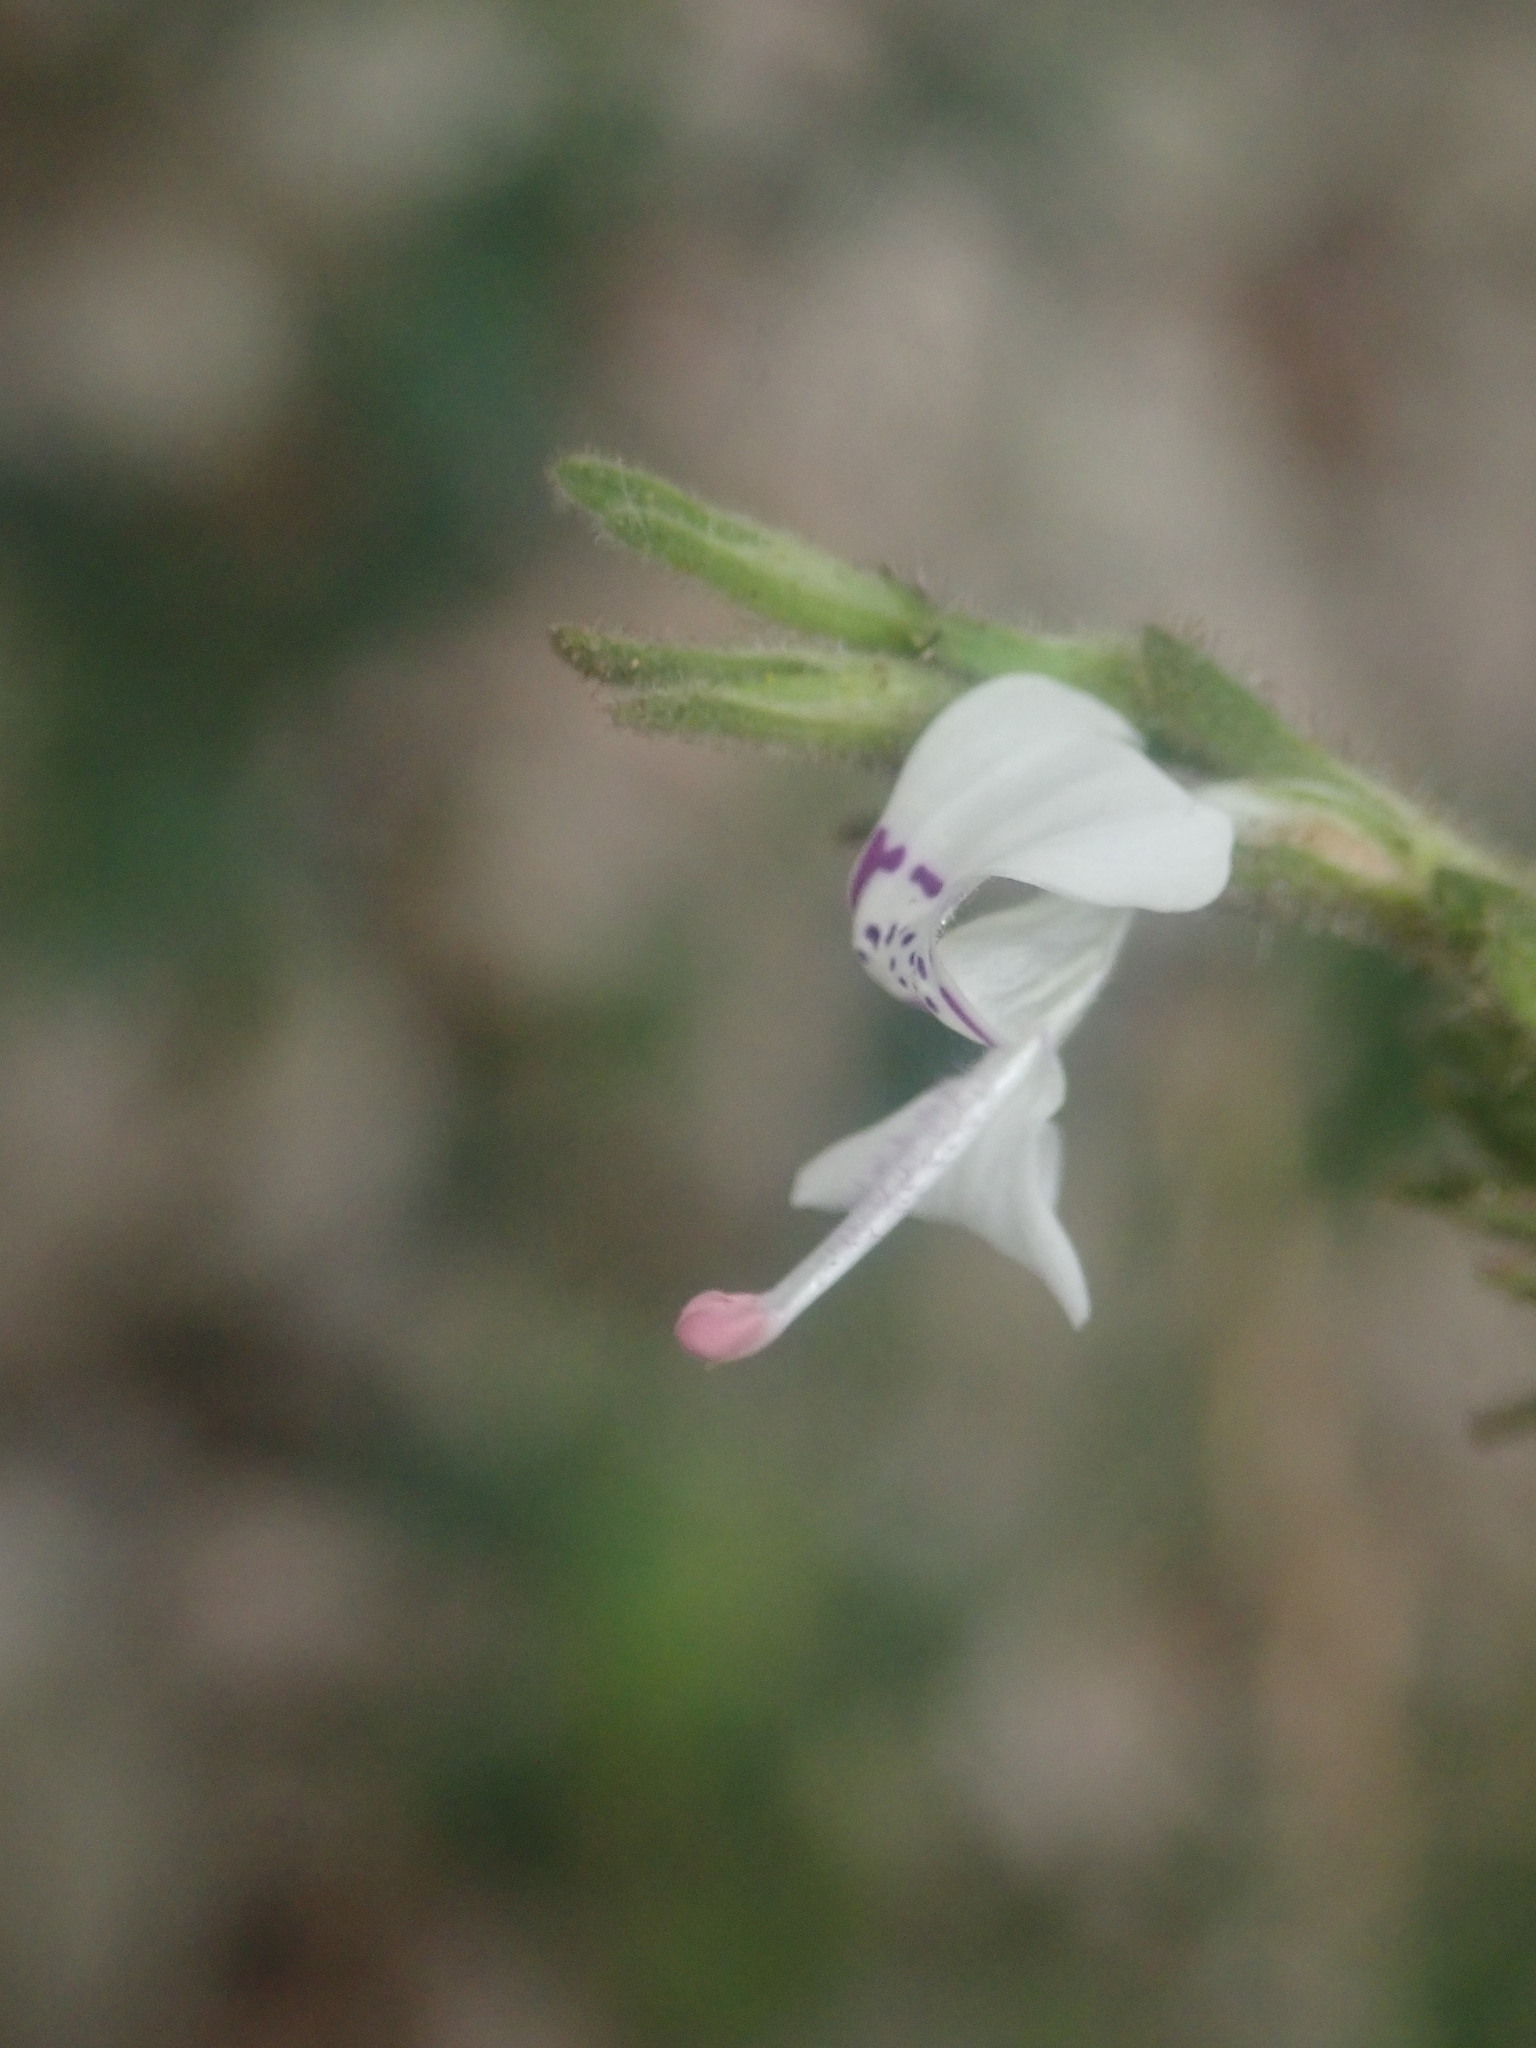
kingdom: Plantae
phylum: Tracheophyta
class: Magnoliopsida
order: Lamiales
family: Acanthaceae
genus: Hypoestes
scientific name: Hypoestes forskaolii
